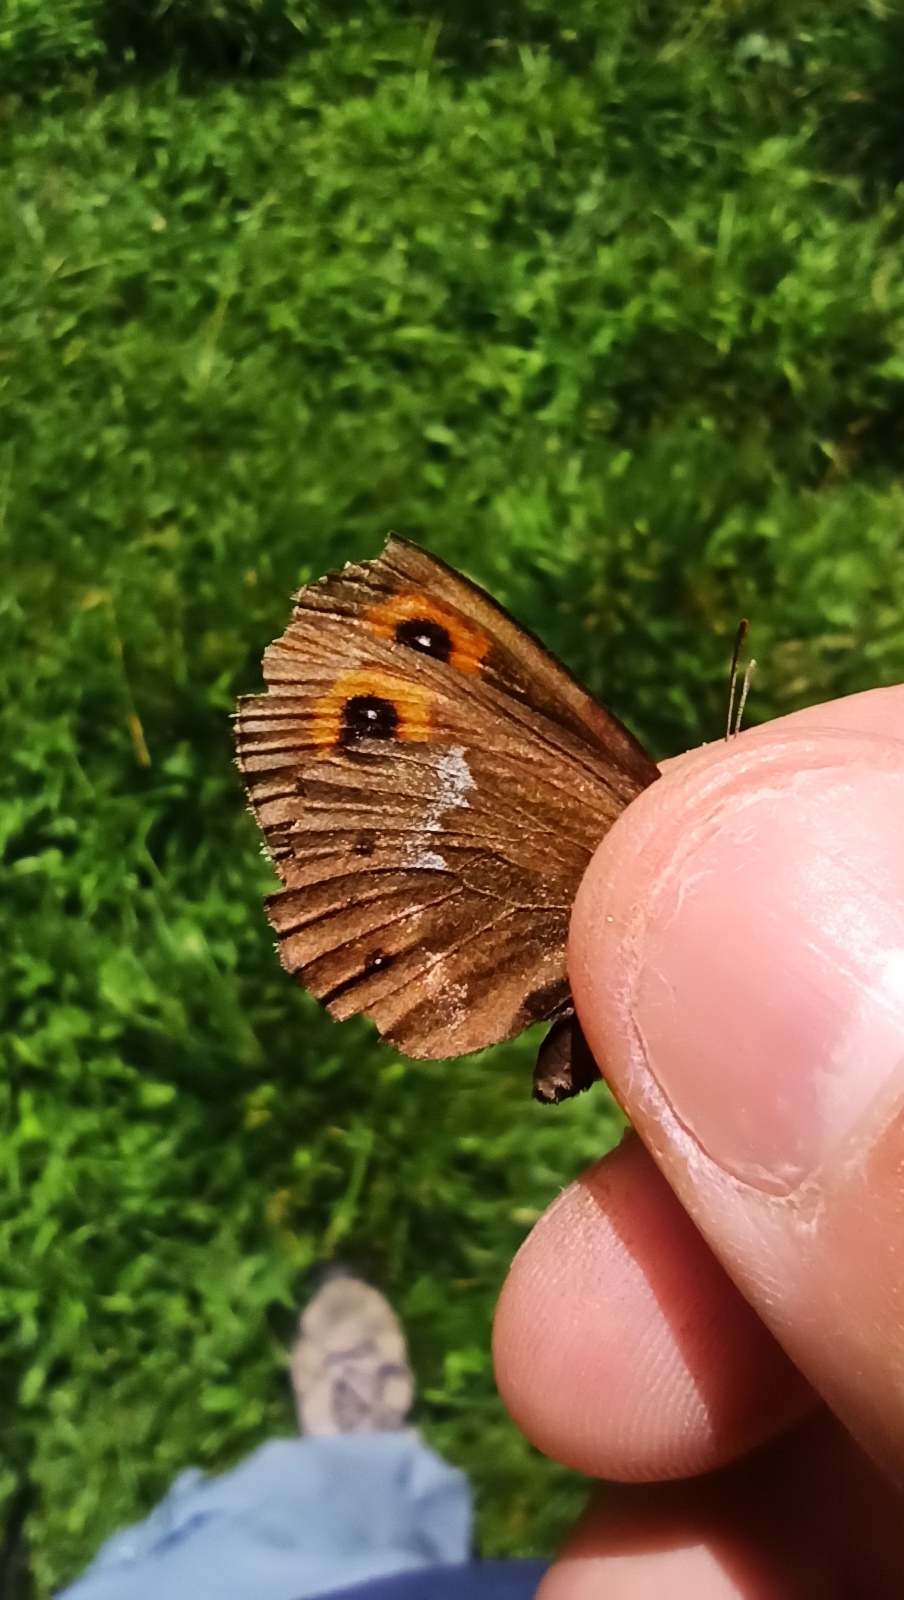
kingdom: Animalia
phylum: Arthropoda
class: Insecta
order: Lepidoptera
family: Nymphalidae
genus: Erebia
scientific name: Erebia ligea
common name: Arran brown
